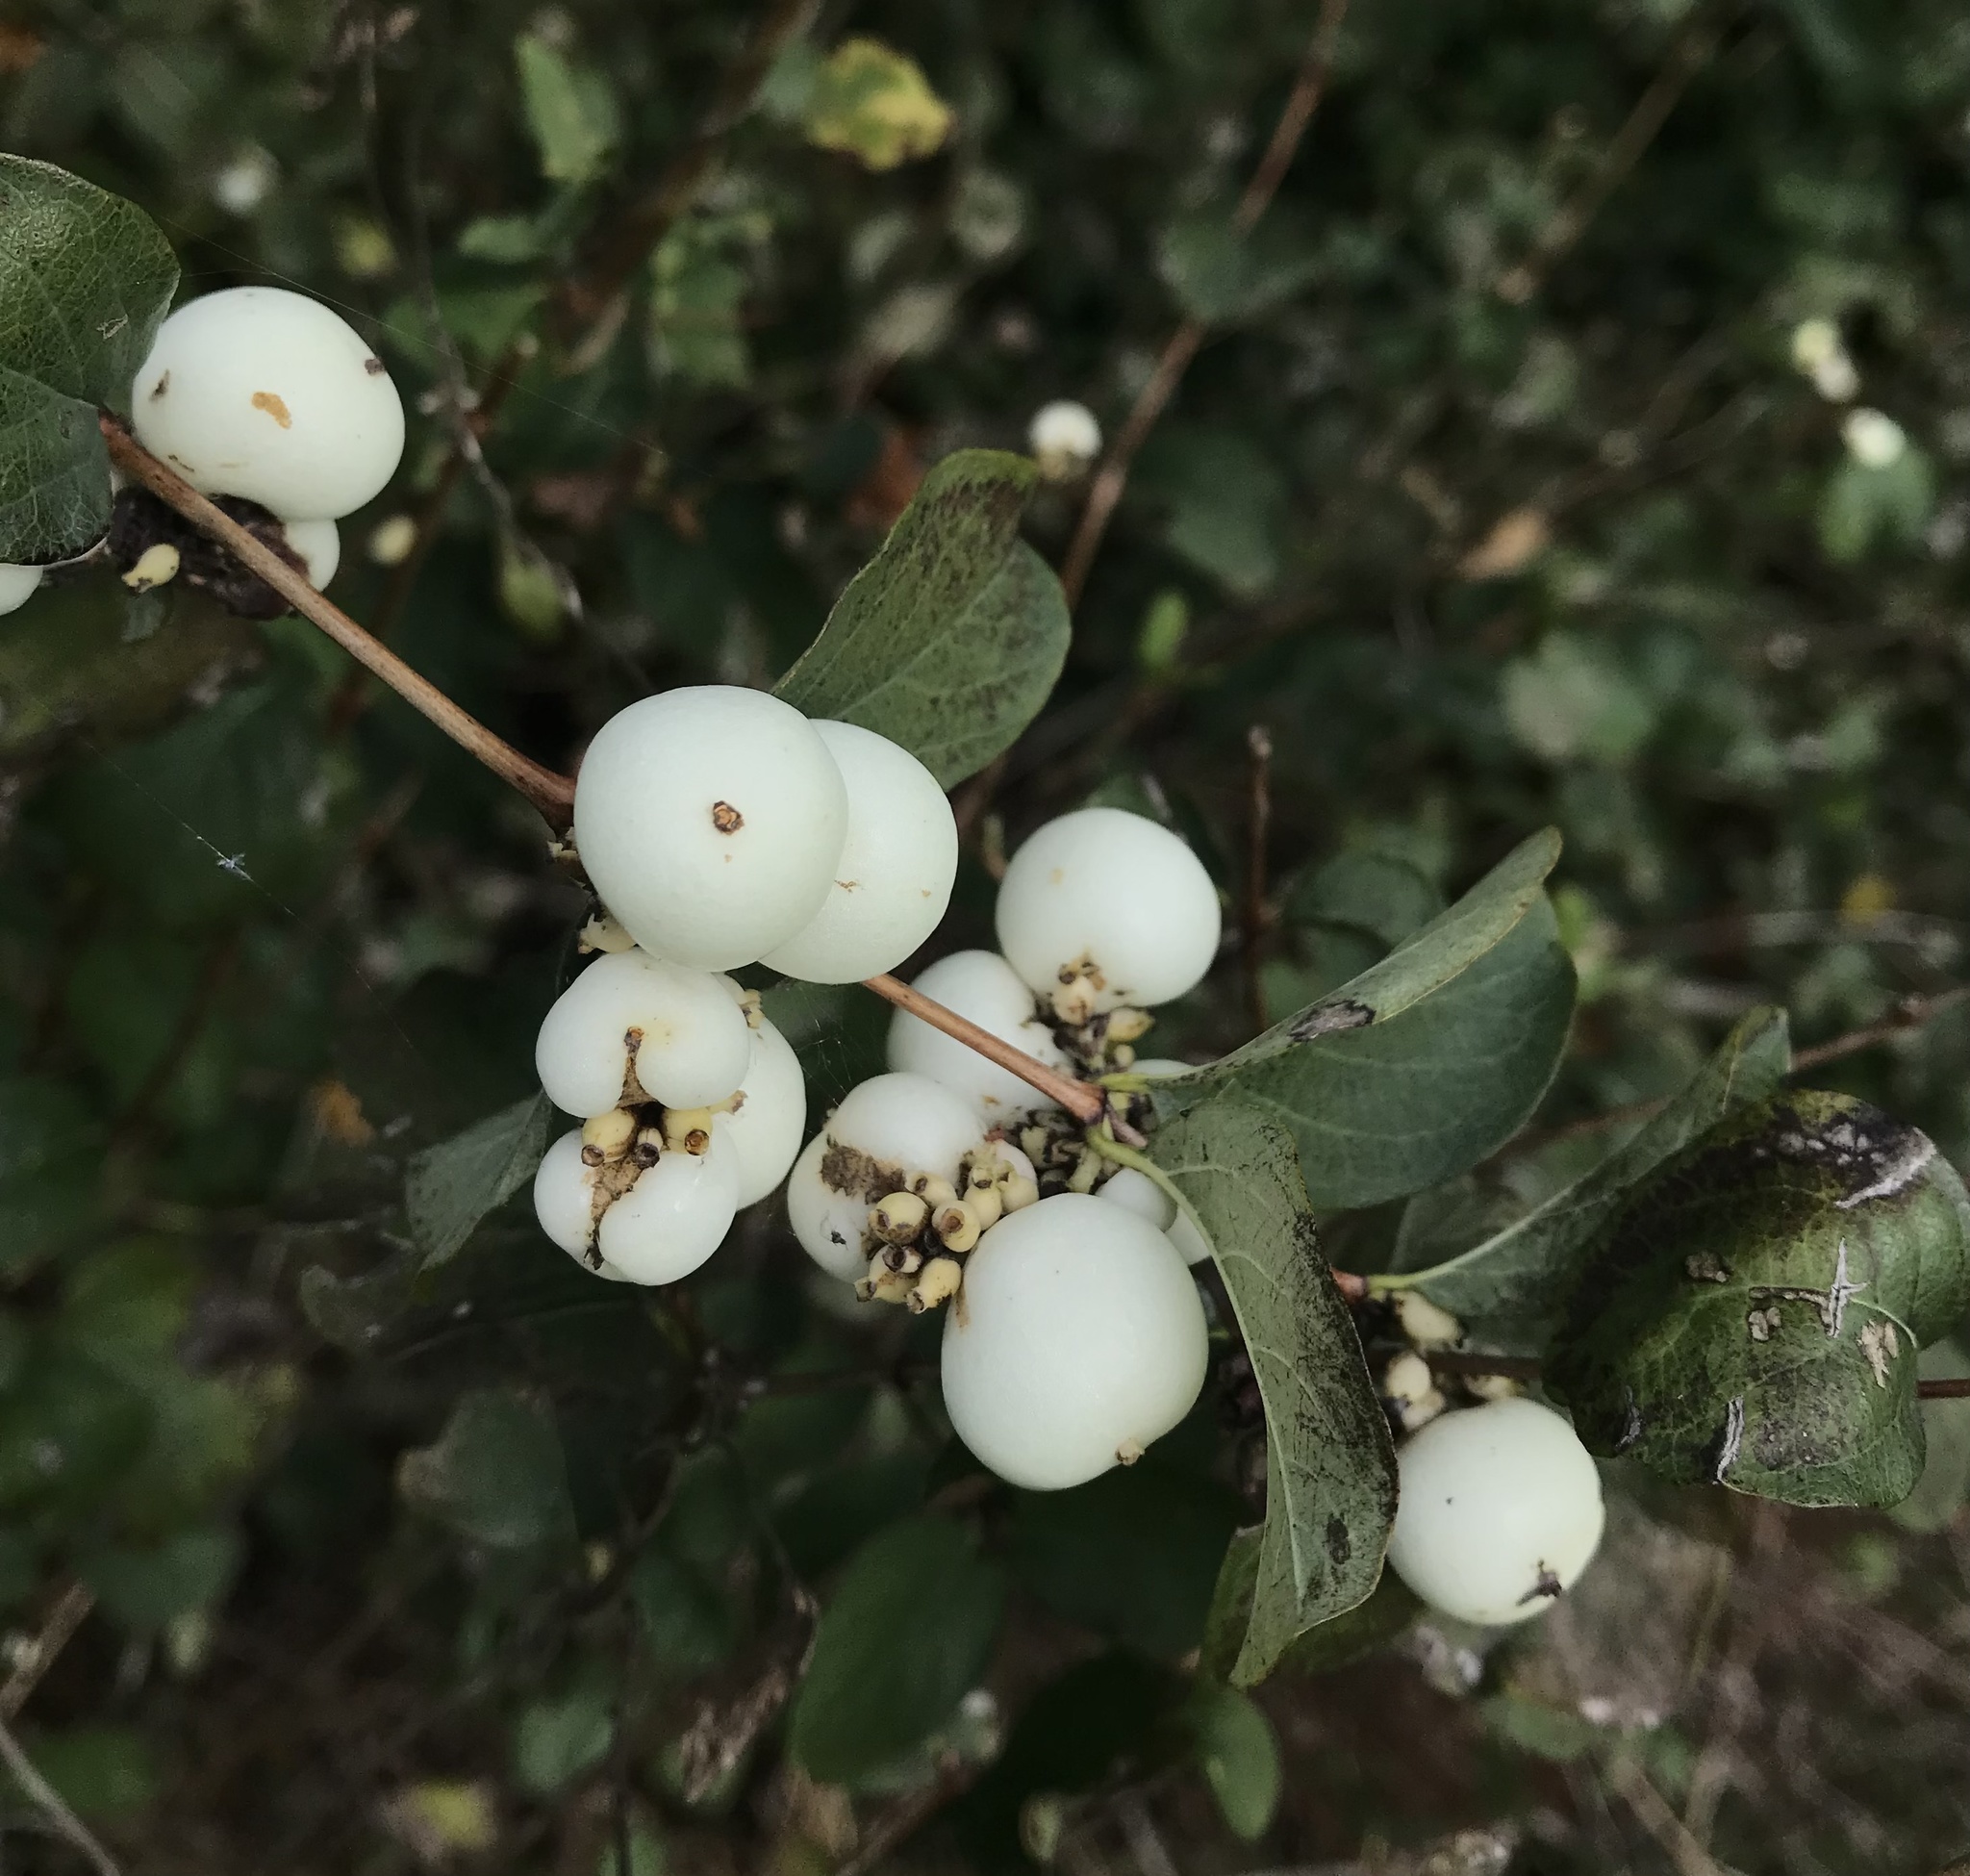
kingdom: Plantae
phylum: Tracheophyta
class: Magnoliopsida
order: Dipsacales
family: Caprifoliaceae
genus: Symphoricarpos
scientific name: Symphoricarpos albus
